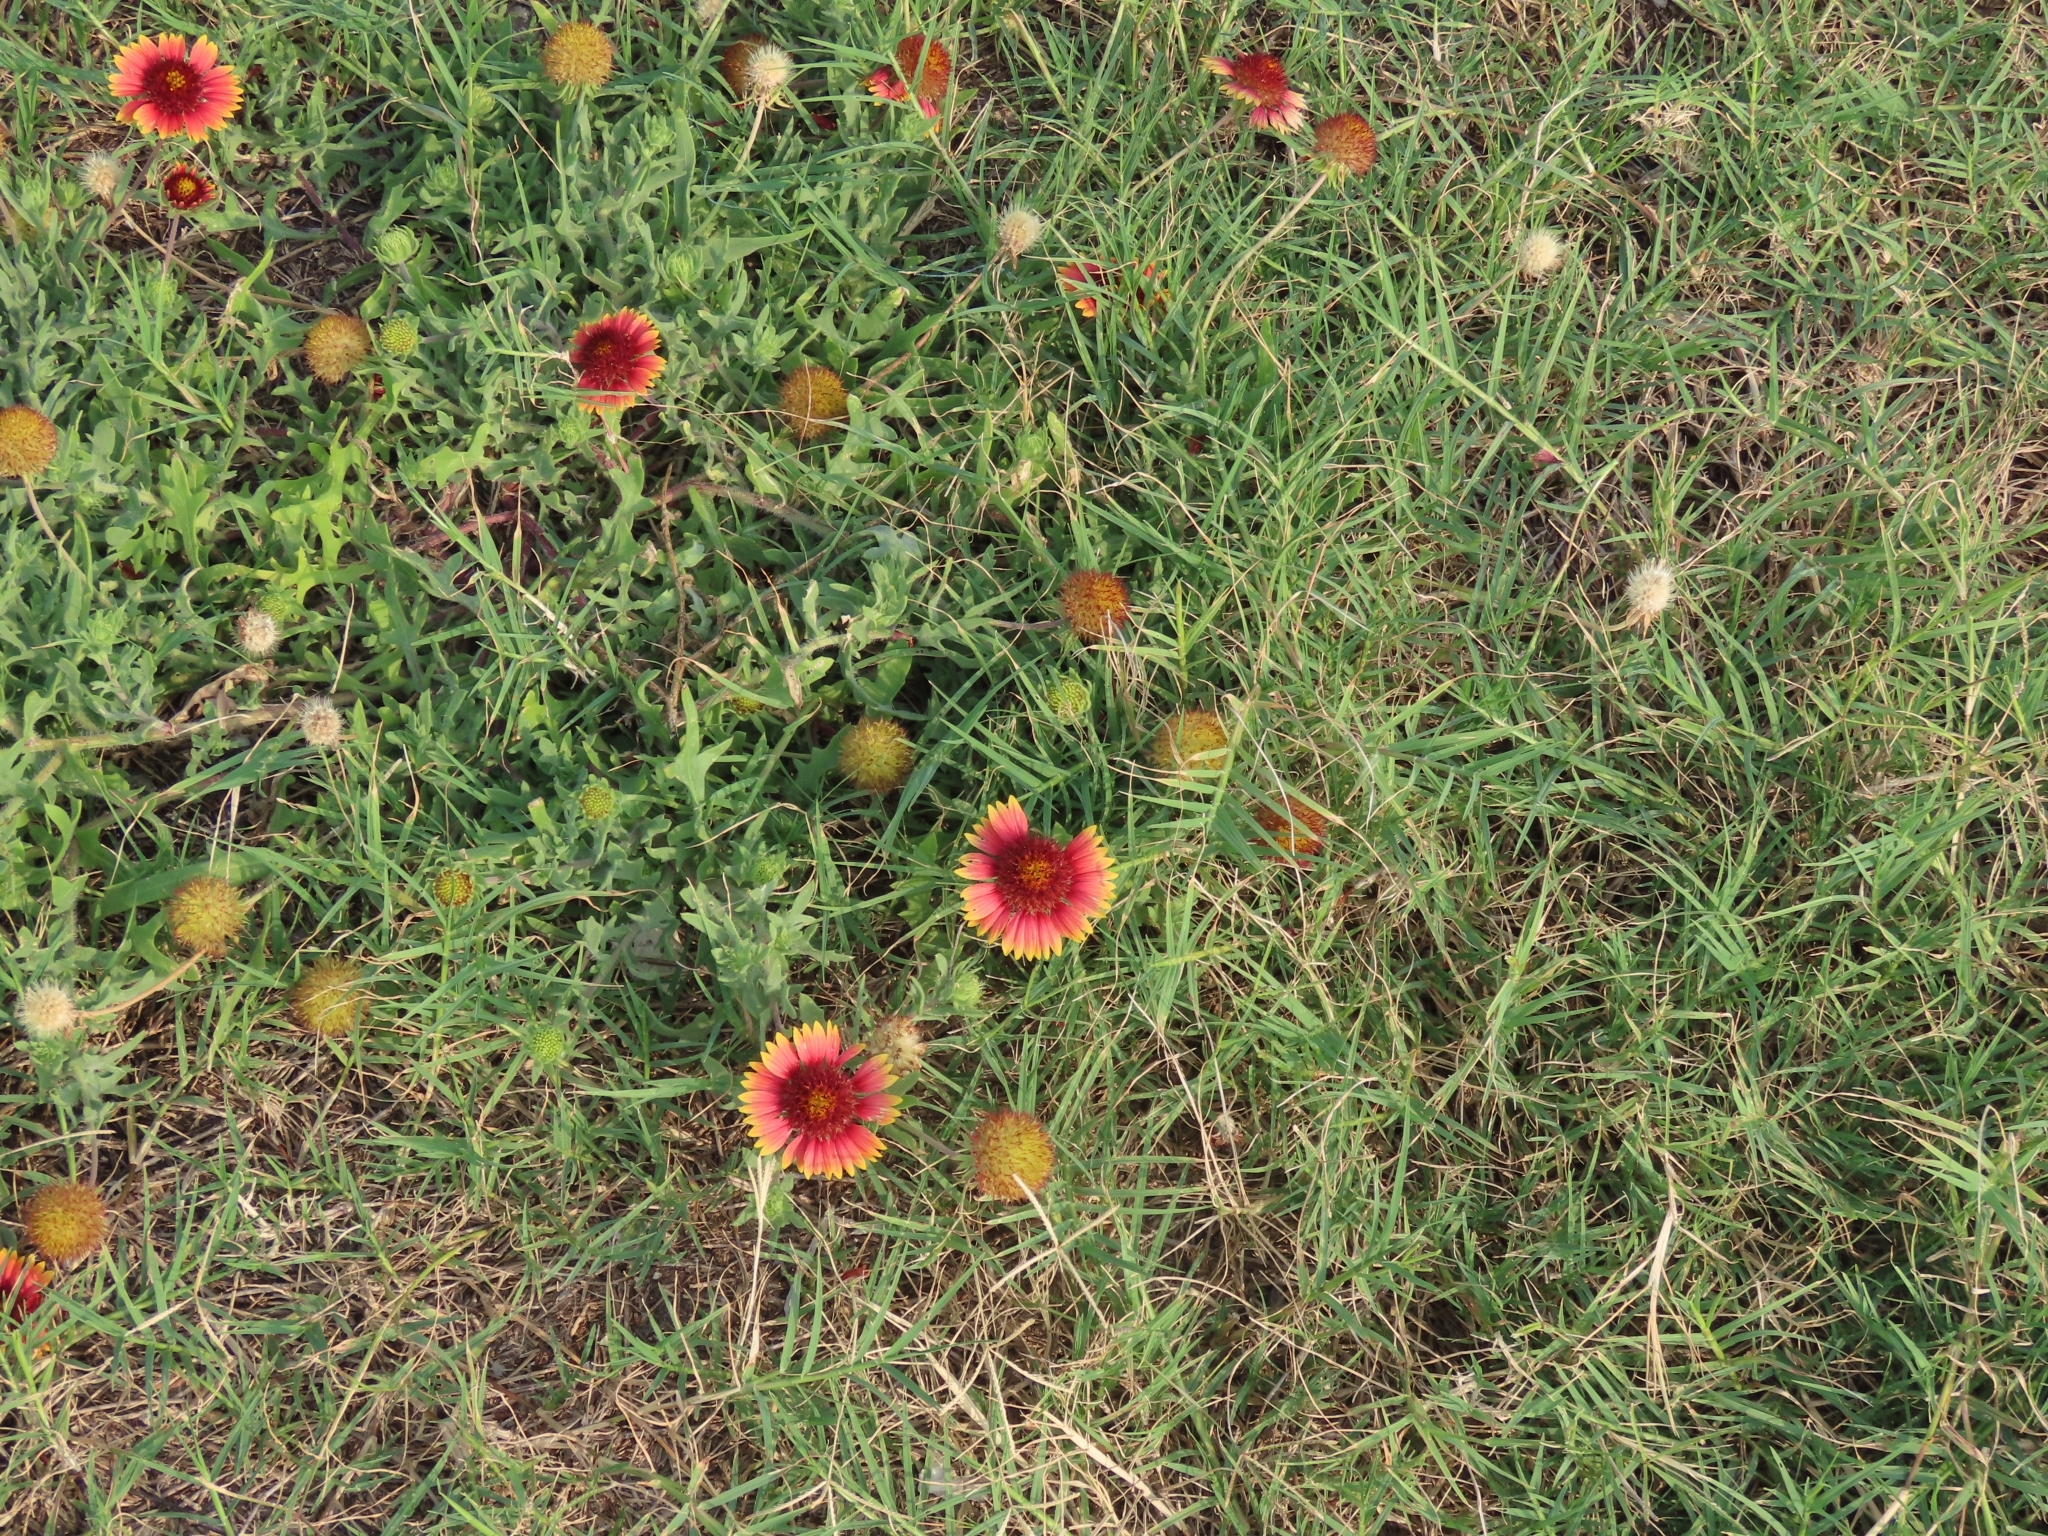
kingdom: Plantae
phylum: Tracheophyta
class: Magnoliopsida
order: Asterales
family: Asteraceae
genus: Gaillardia
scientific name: Gaillardia pulchella
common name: Firewheel
